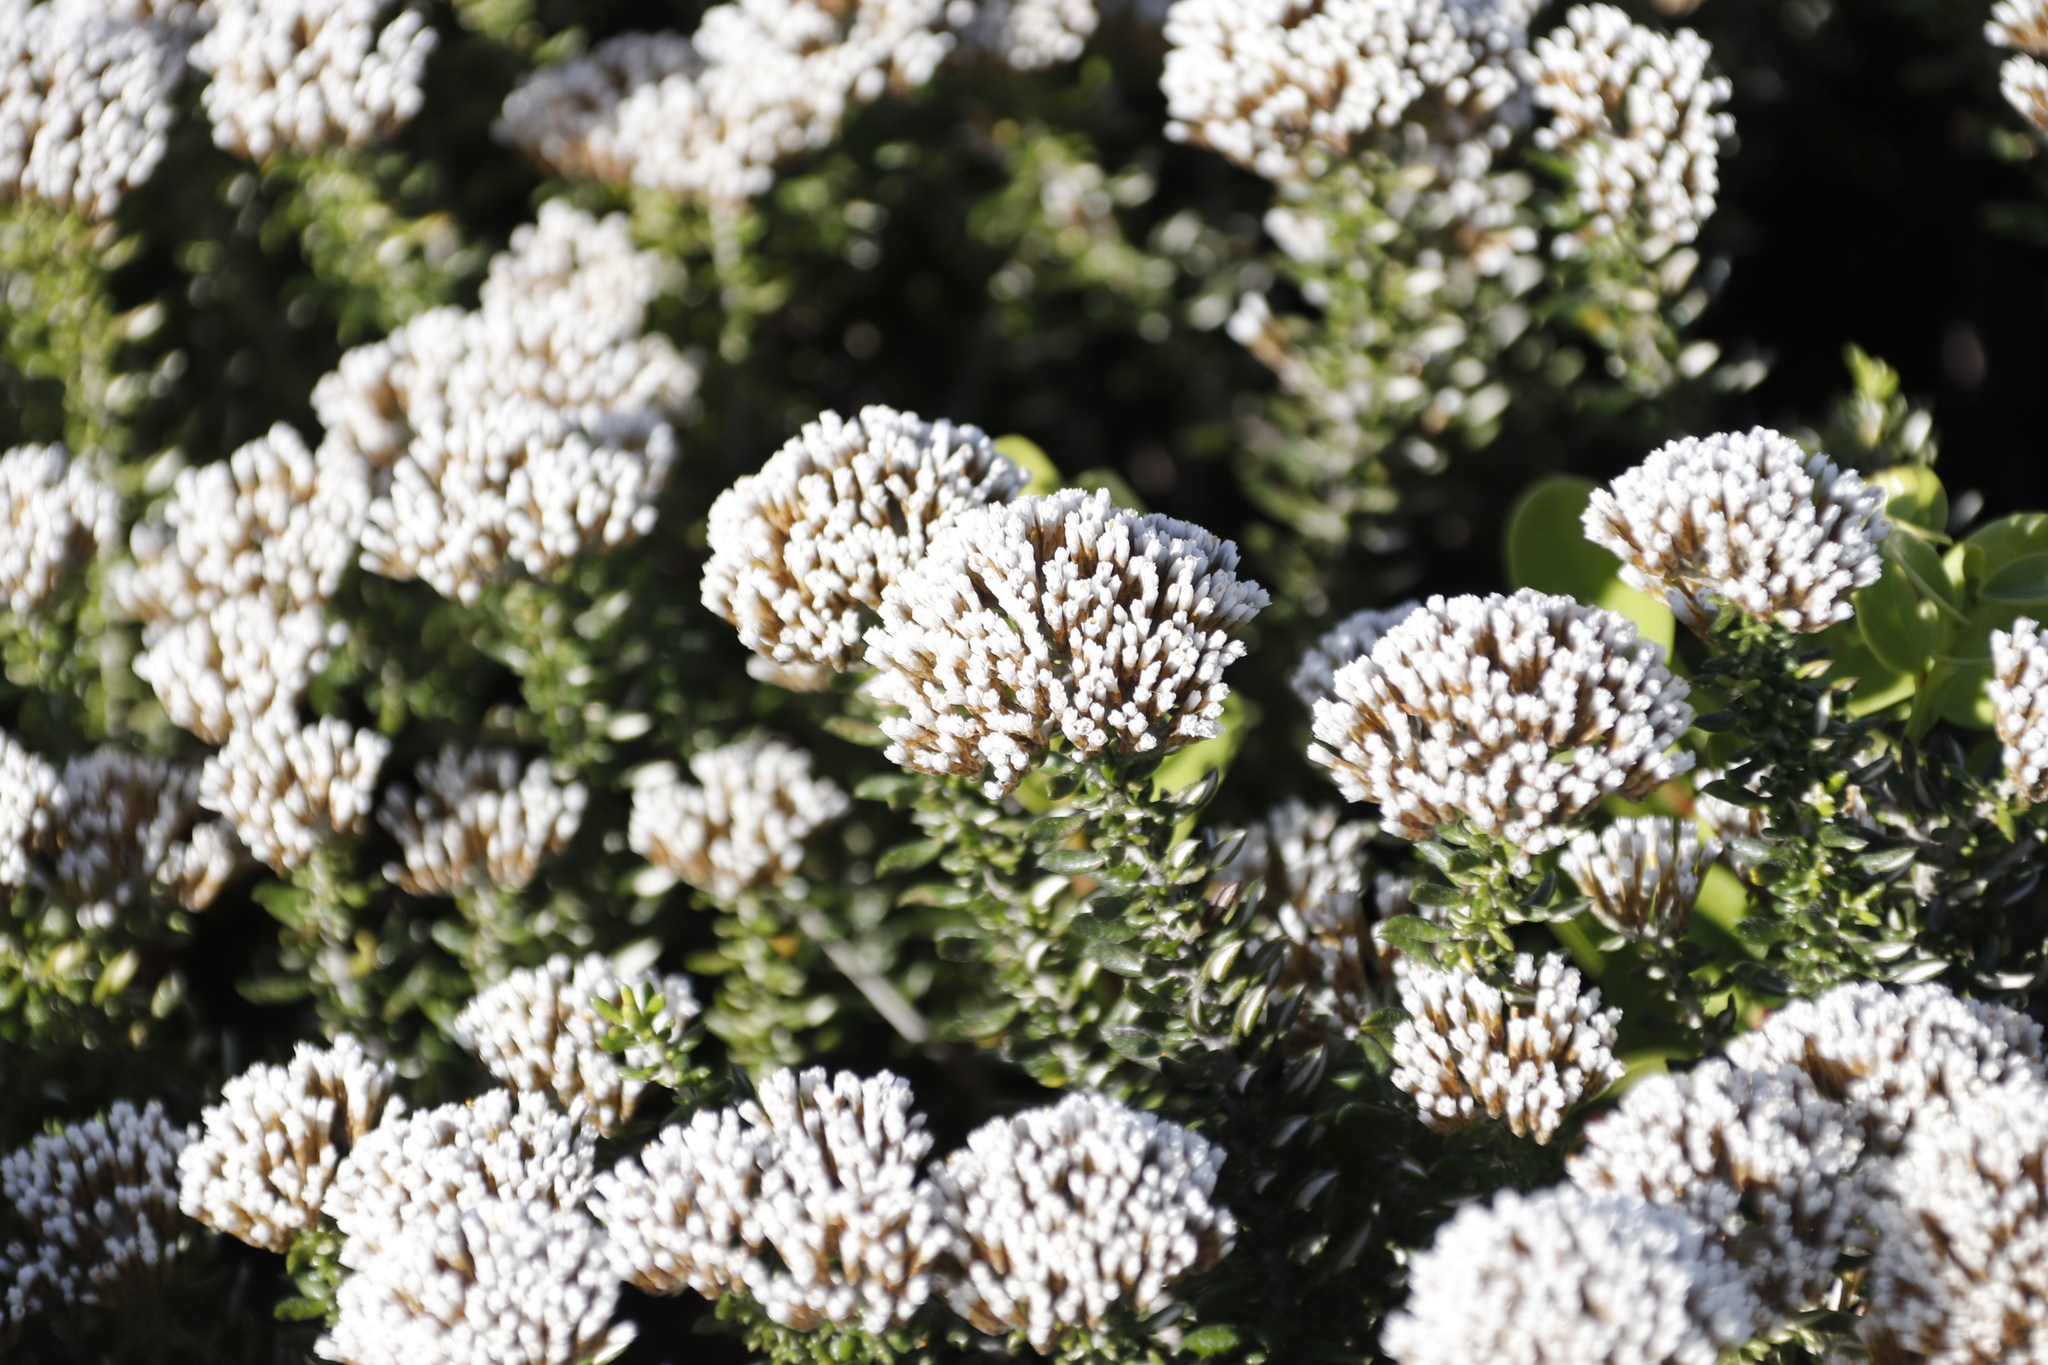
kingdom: Plantae
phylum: Tracheophyta
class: Magnoliopsida
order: Asterales
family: Asteraceae
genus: Metalasia
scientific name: Metalasia muricata
